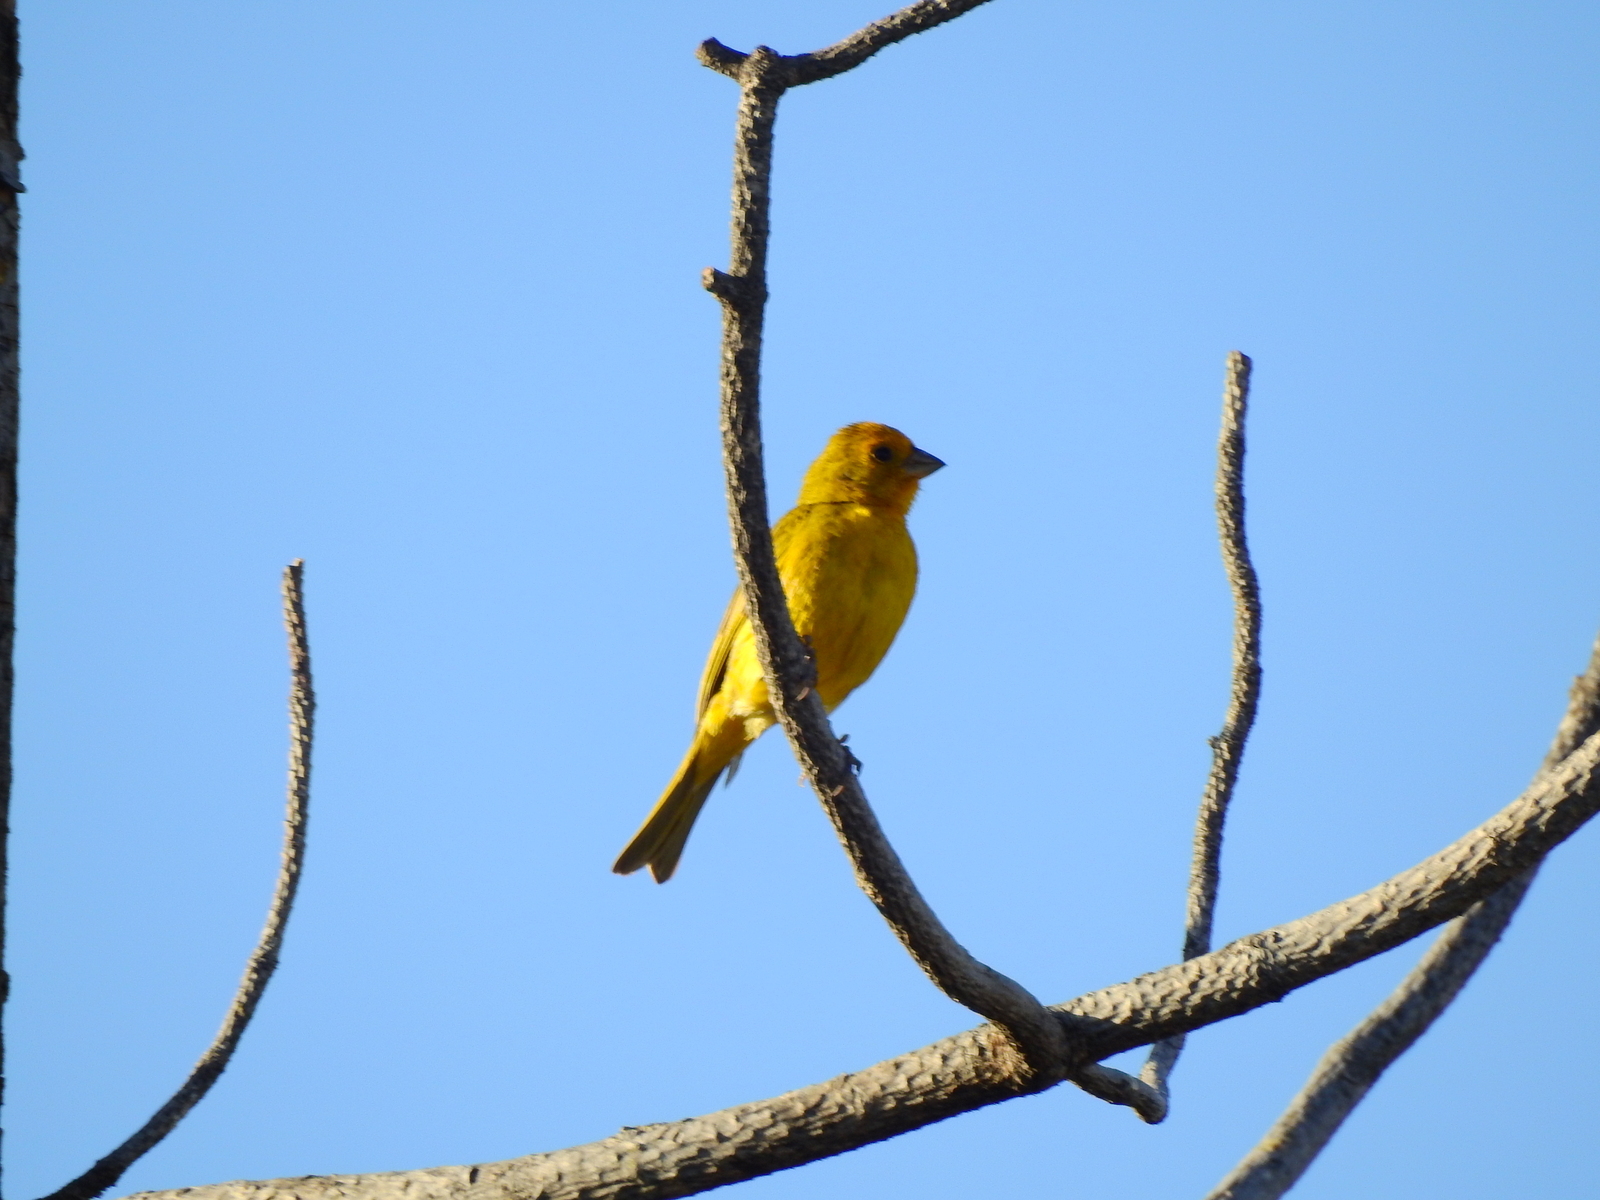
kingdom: Animalia
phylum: Chordata
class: Aves
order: Passeriformes
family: Thraupidae
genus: Sicalis
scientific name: Sicalis flaveola
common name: Saffron finch
